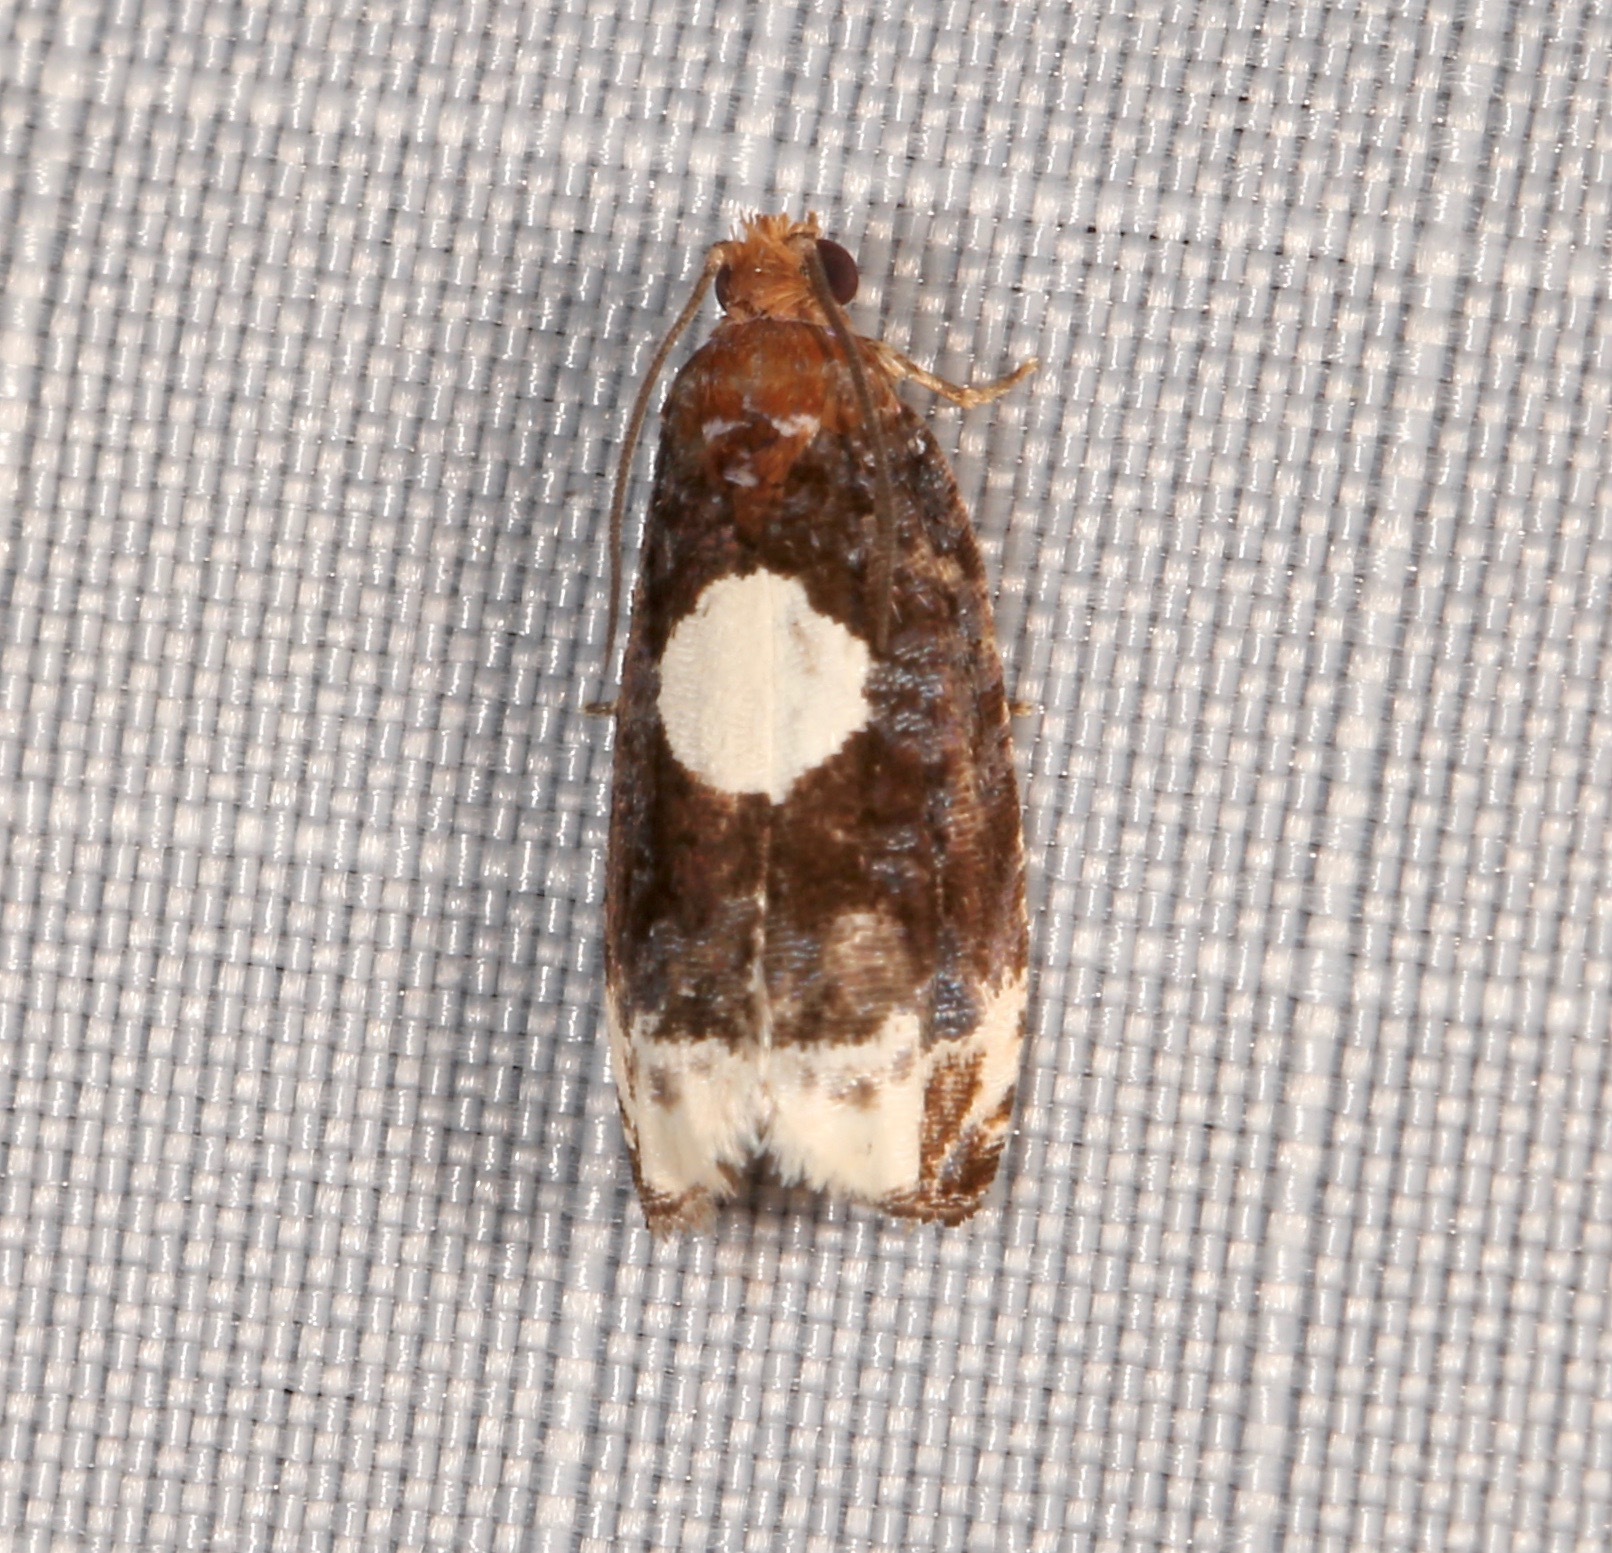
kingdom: Animalia
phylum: Arthropoda
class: Insecta
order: Lepidoptera
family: Tortricidae
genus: Olethreutes
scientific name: Olethreutes devotana
